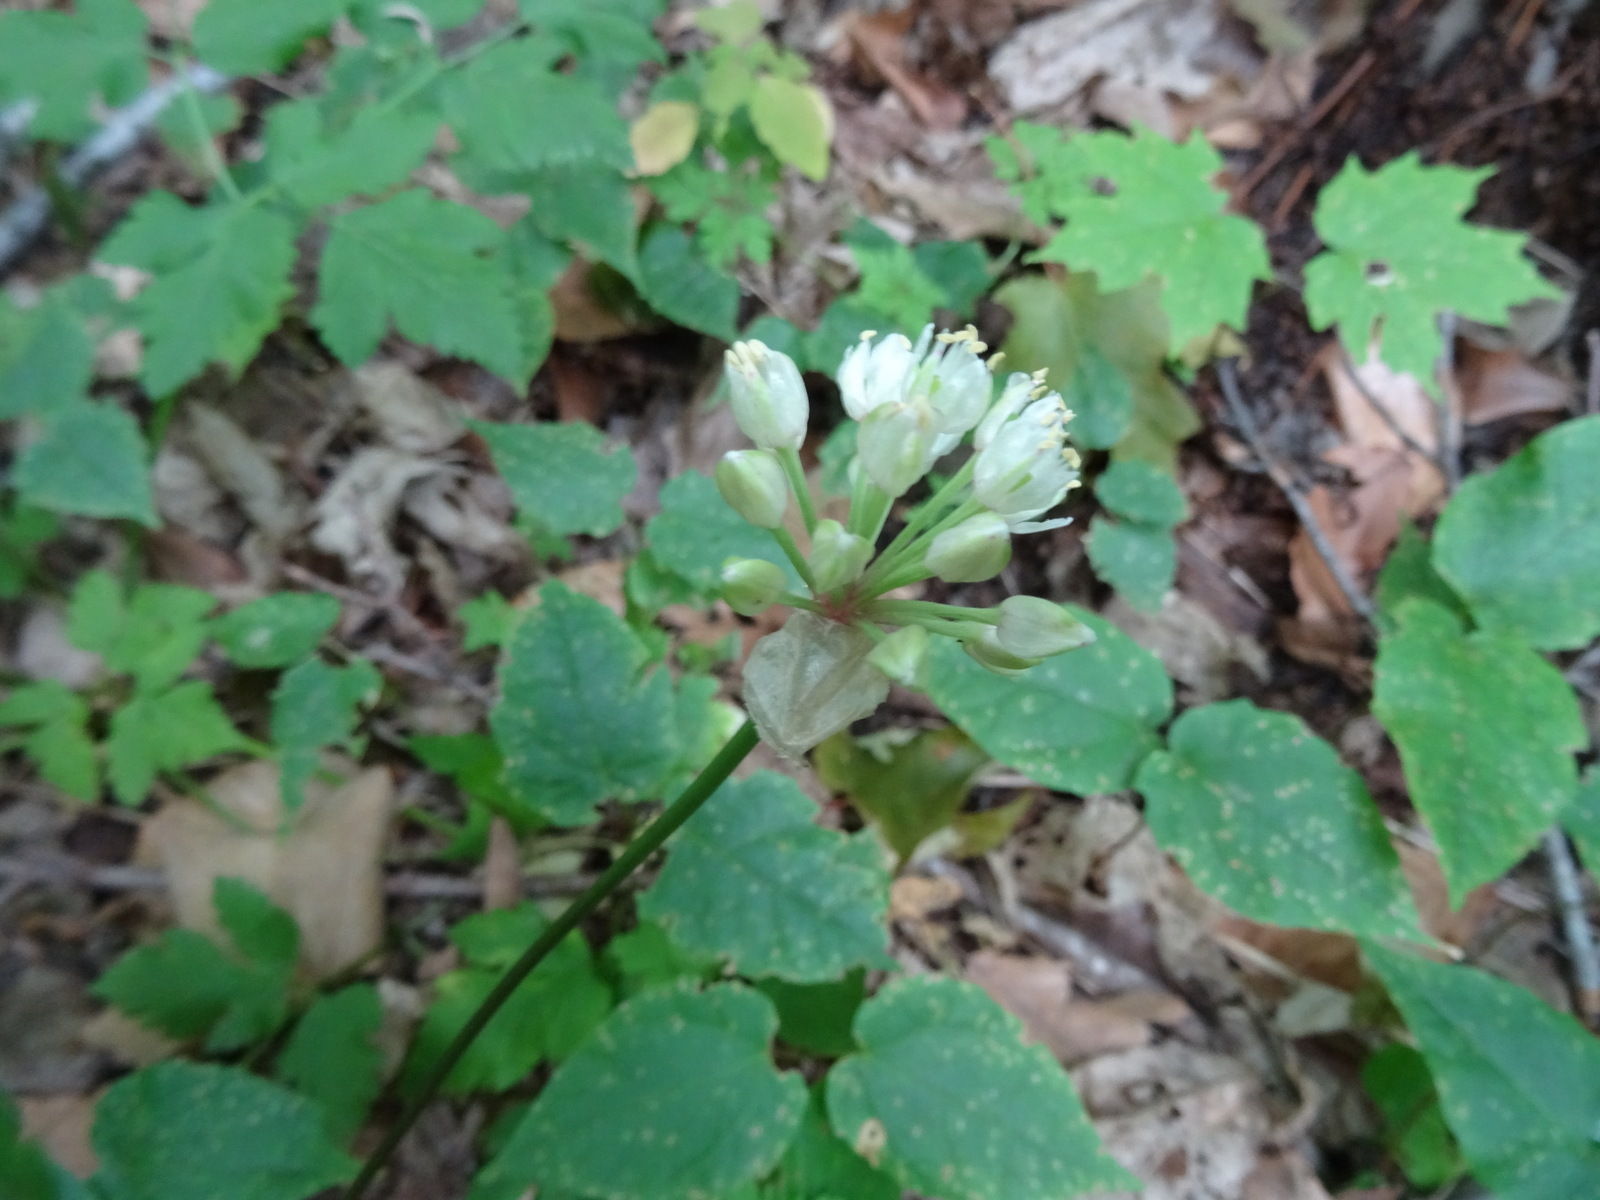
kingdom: Plantae
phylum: Tracheophyta
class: Liliopsida
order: Asparagales
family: Amaryllidaceae
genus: Allium
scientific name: Allium tricoccum
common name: Ramp
